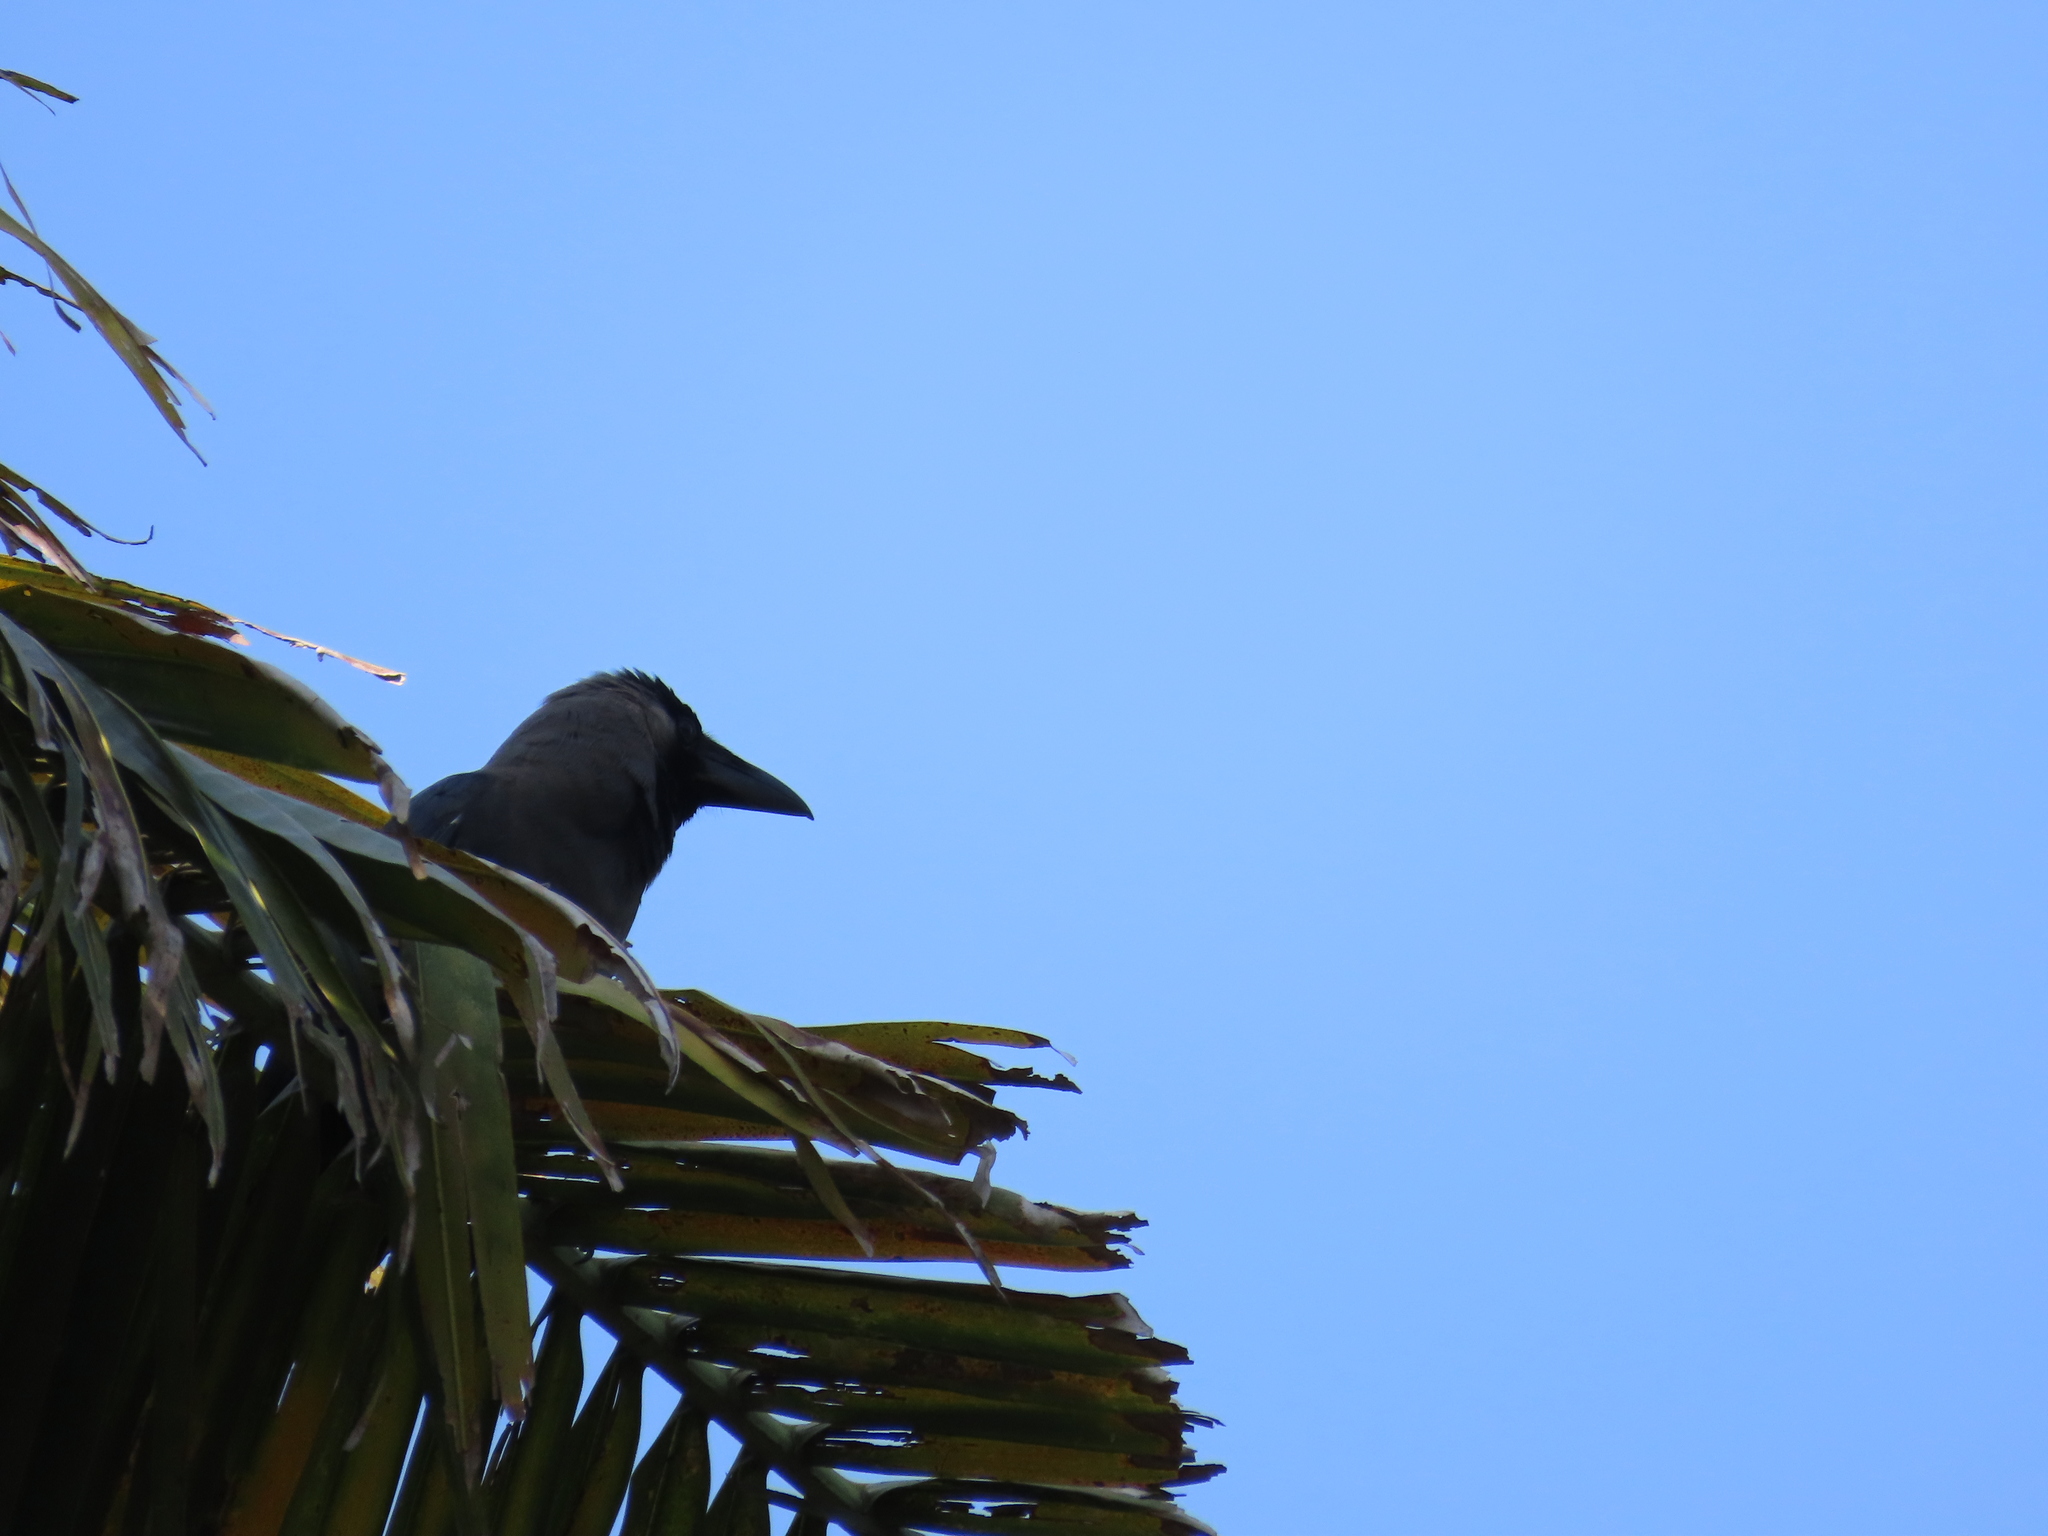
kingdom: Animalia
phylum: Chordata
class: Aves
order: Passeriformes
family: Corvidae
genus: Corvus
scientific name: Corvus splendens
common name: House crow
